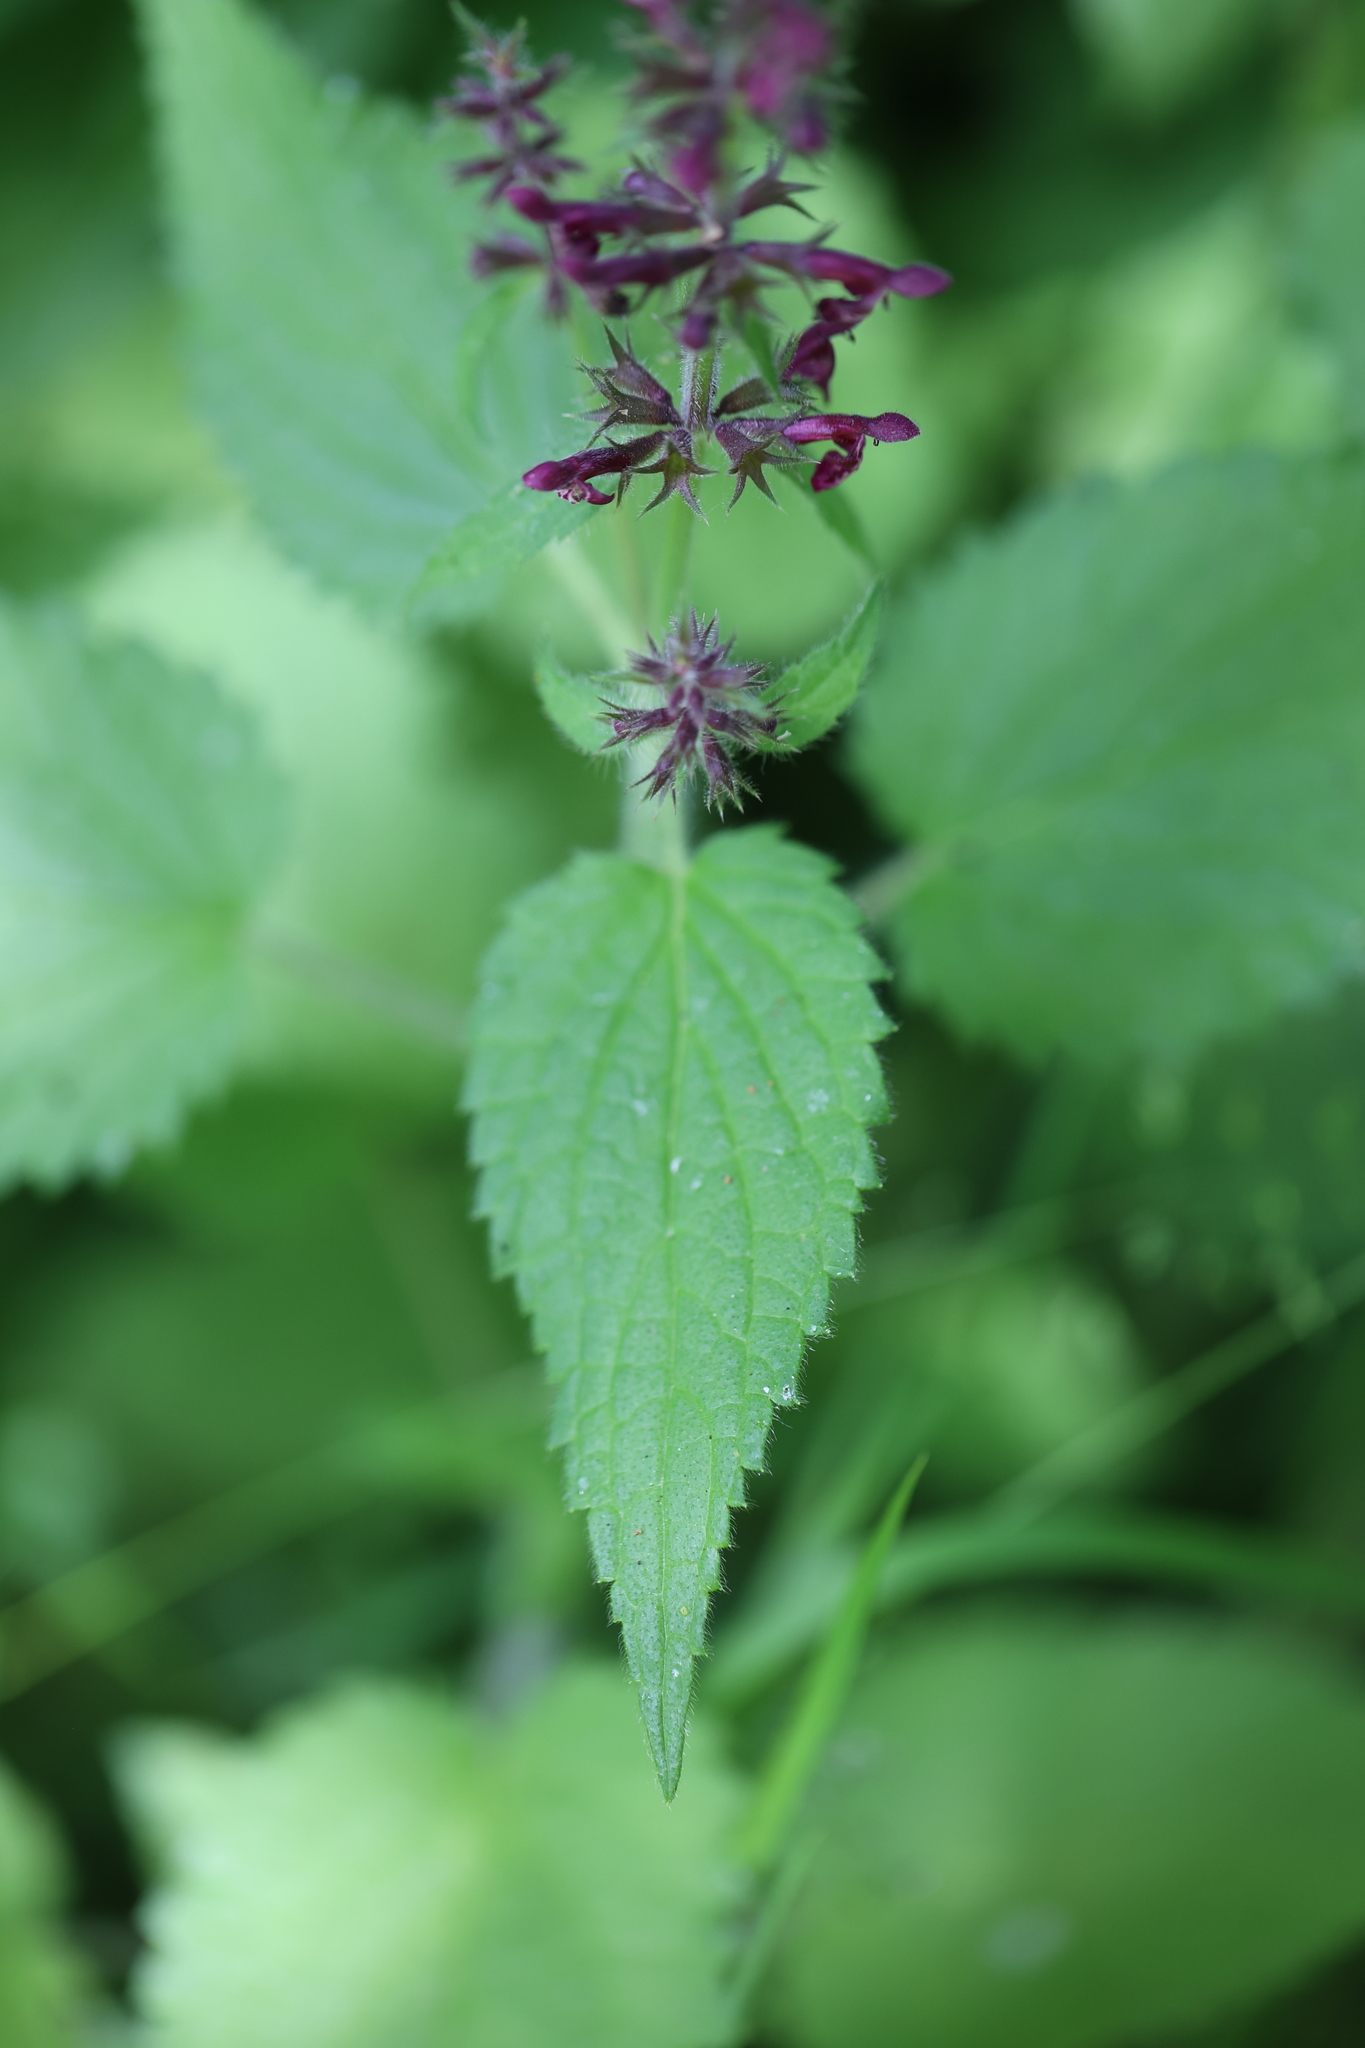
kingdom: Plantae
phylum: Tracheophyta
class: Magnoliopsida
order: Lamiales
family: Lamiaceae
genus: Stachys
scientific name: Stachys sylvatica
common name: Hedge woundwort
